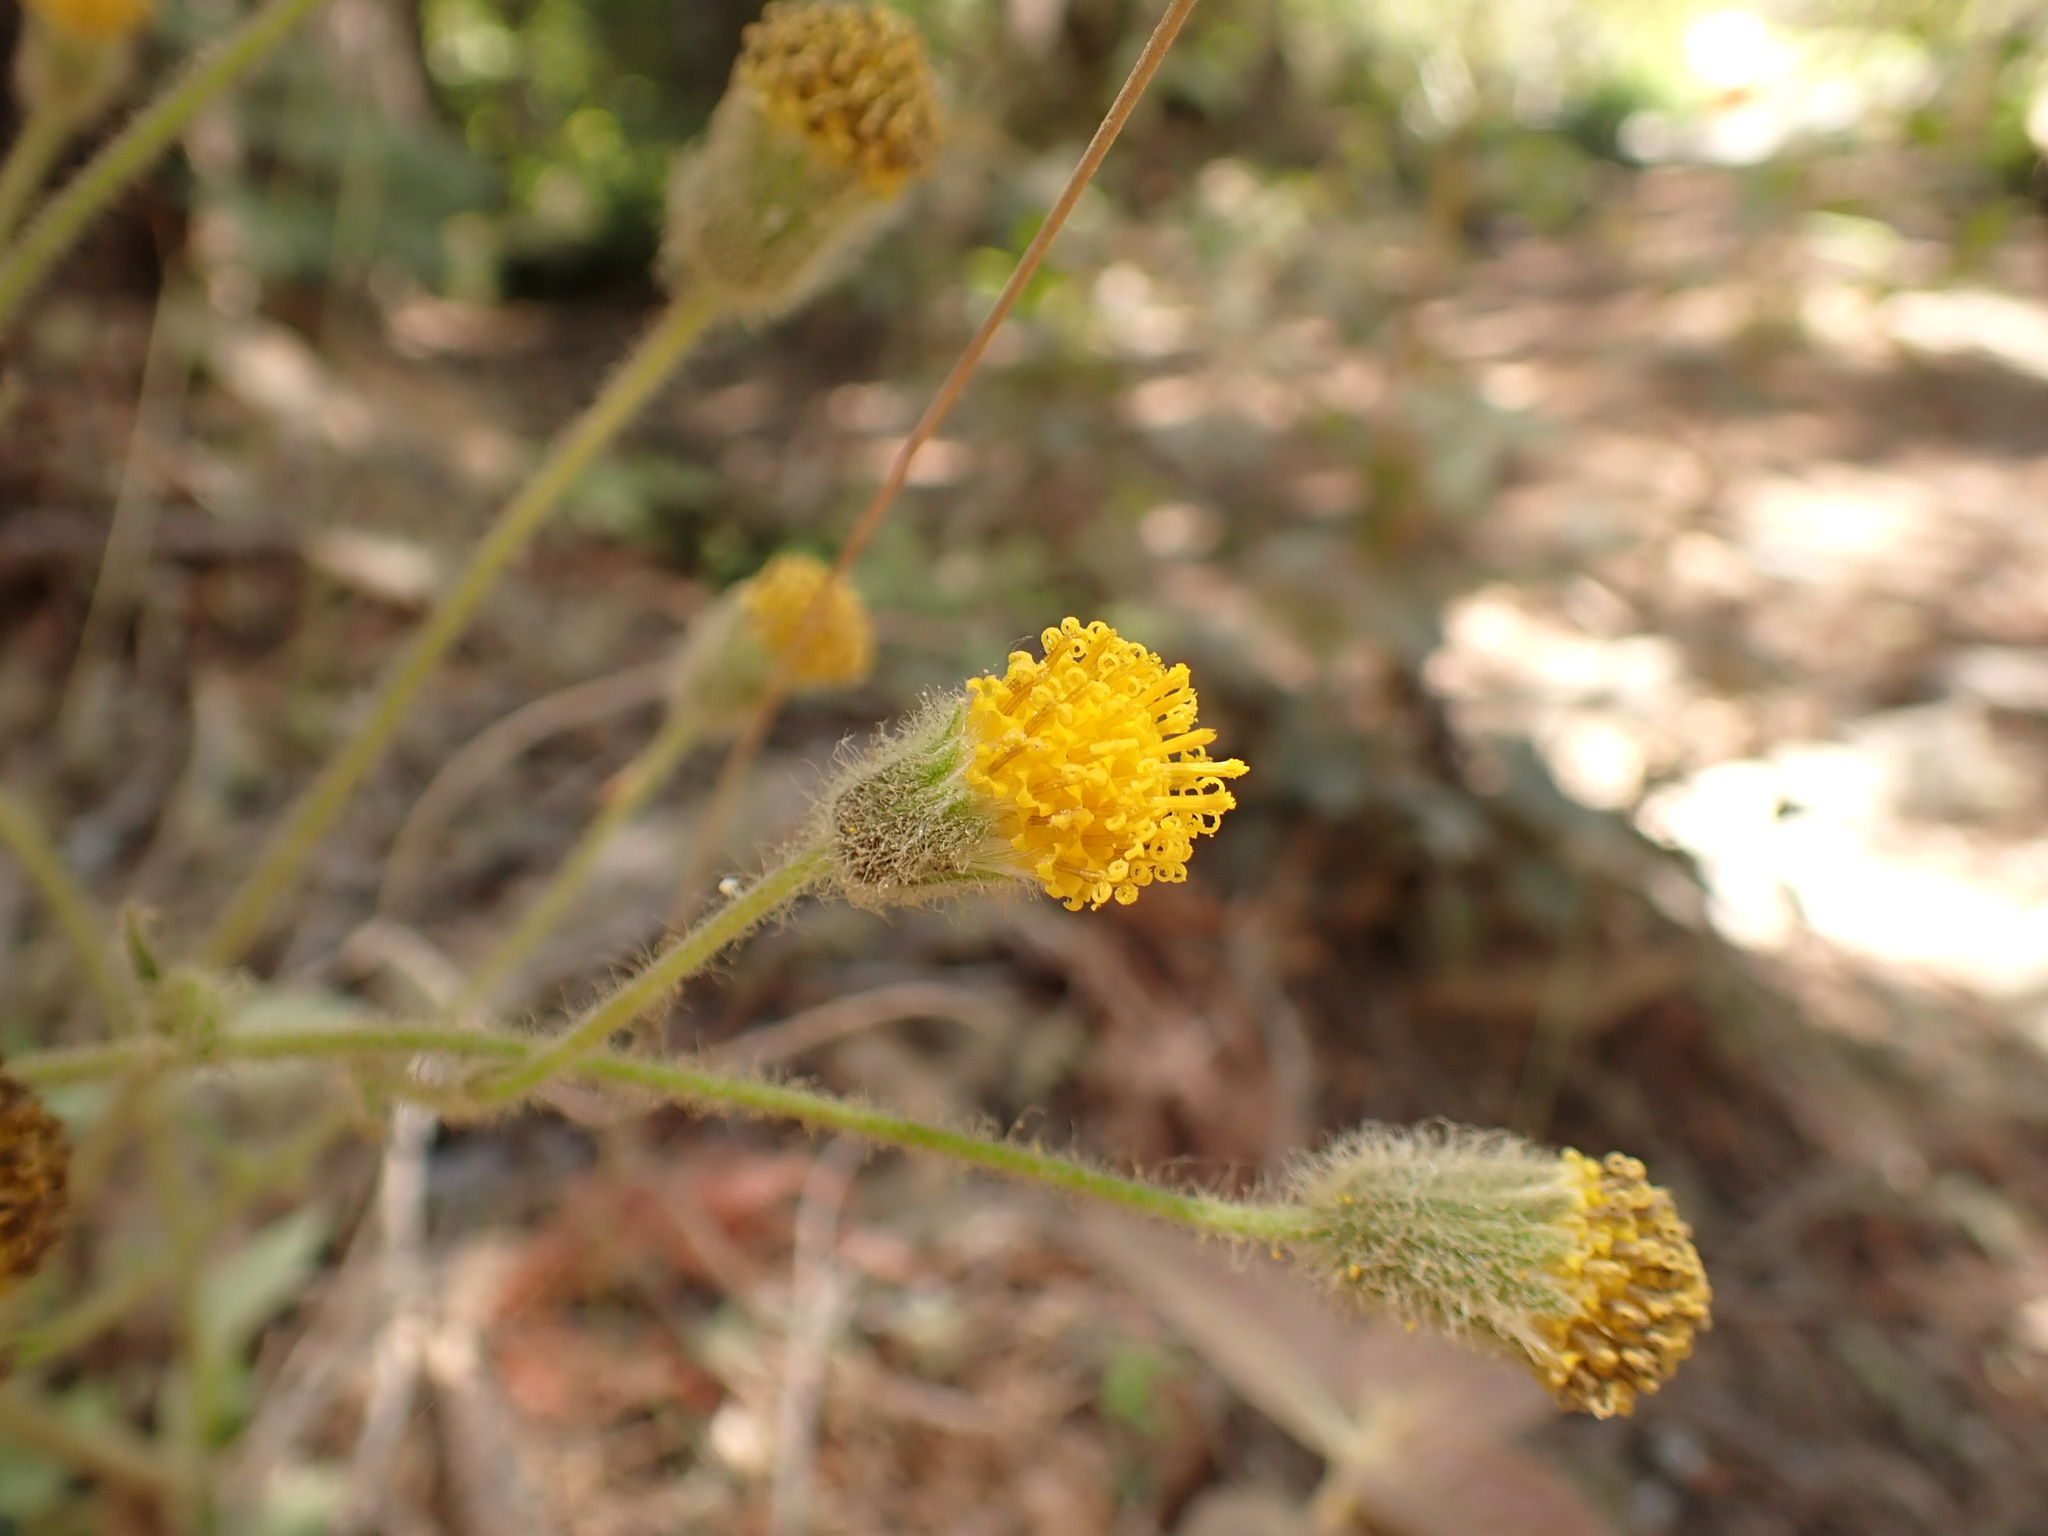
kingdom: Plantae
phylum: Tracheophyta
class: Magnoliopsida
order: Asterales
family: Asteraceae
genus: Arnica
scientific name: Arnica discoidea
